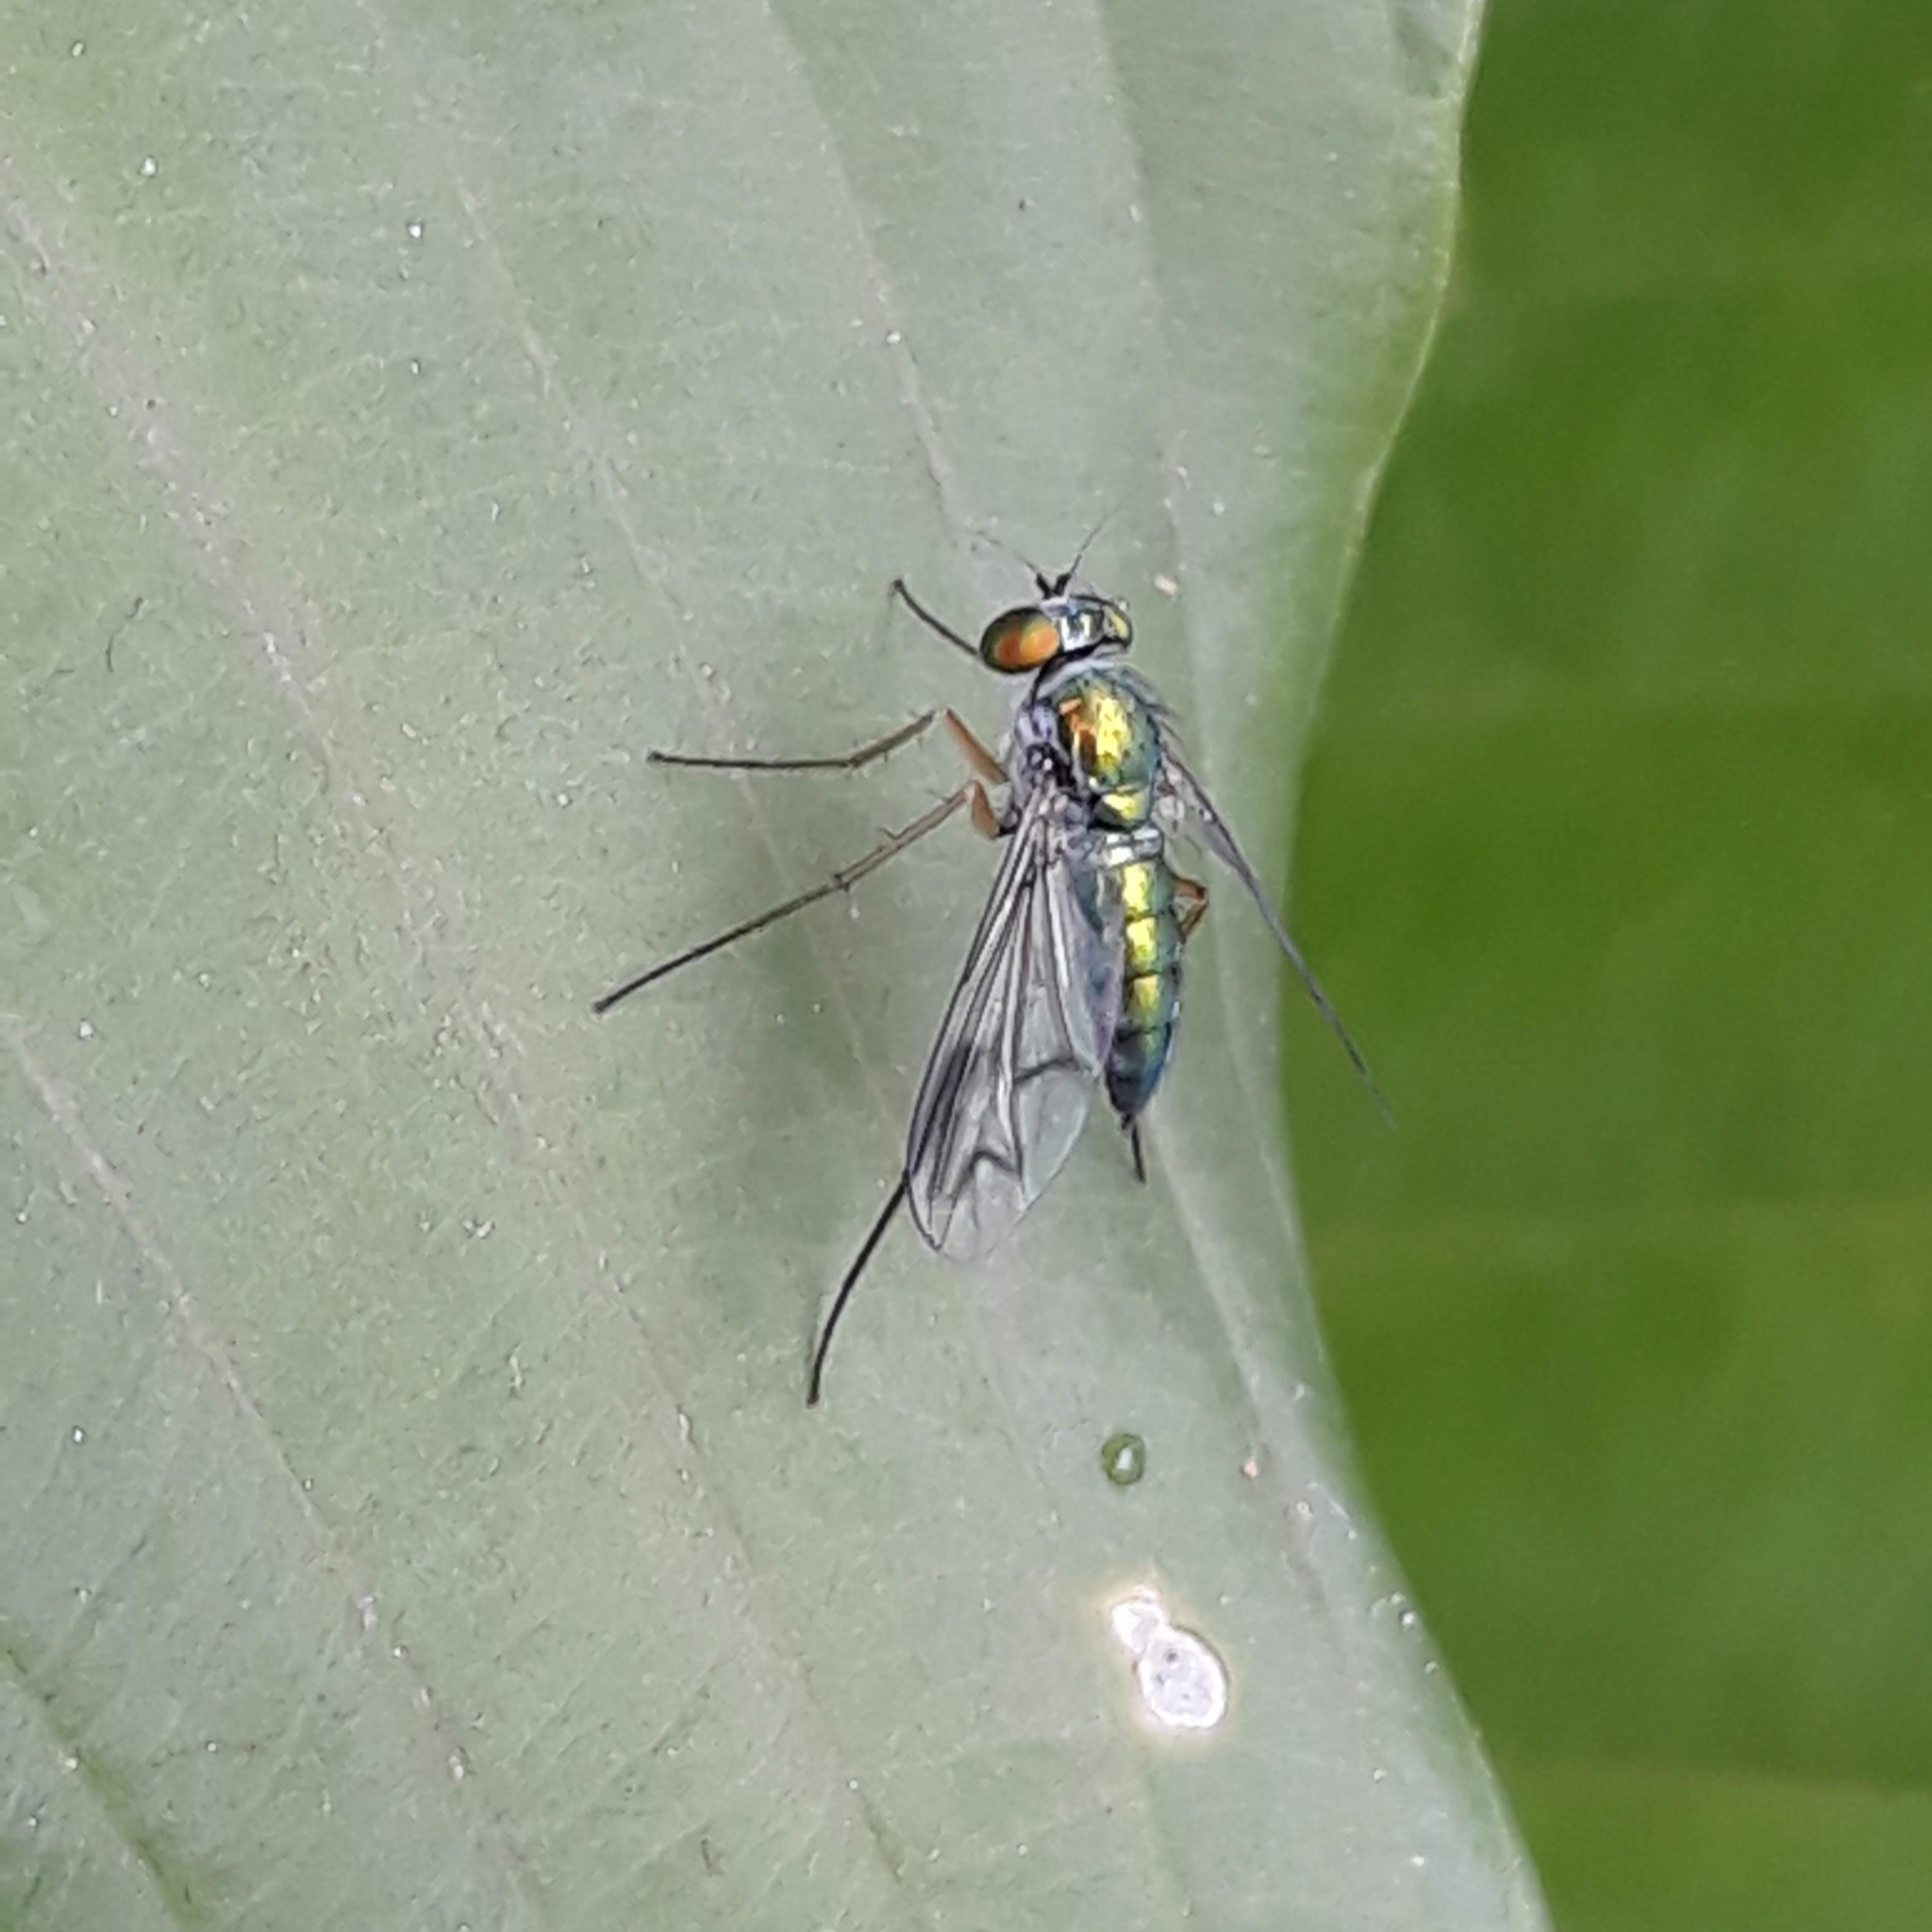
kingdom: Animalia
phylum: Arthropoda
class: Insecta
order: Diptera
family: Dolichopodidae
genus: Condylostylus
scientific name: Condylostylus
